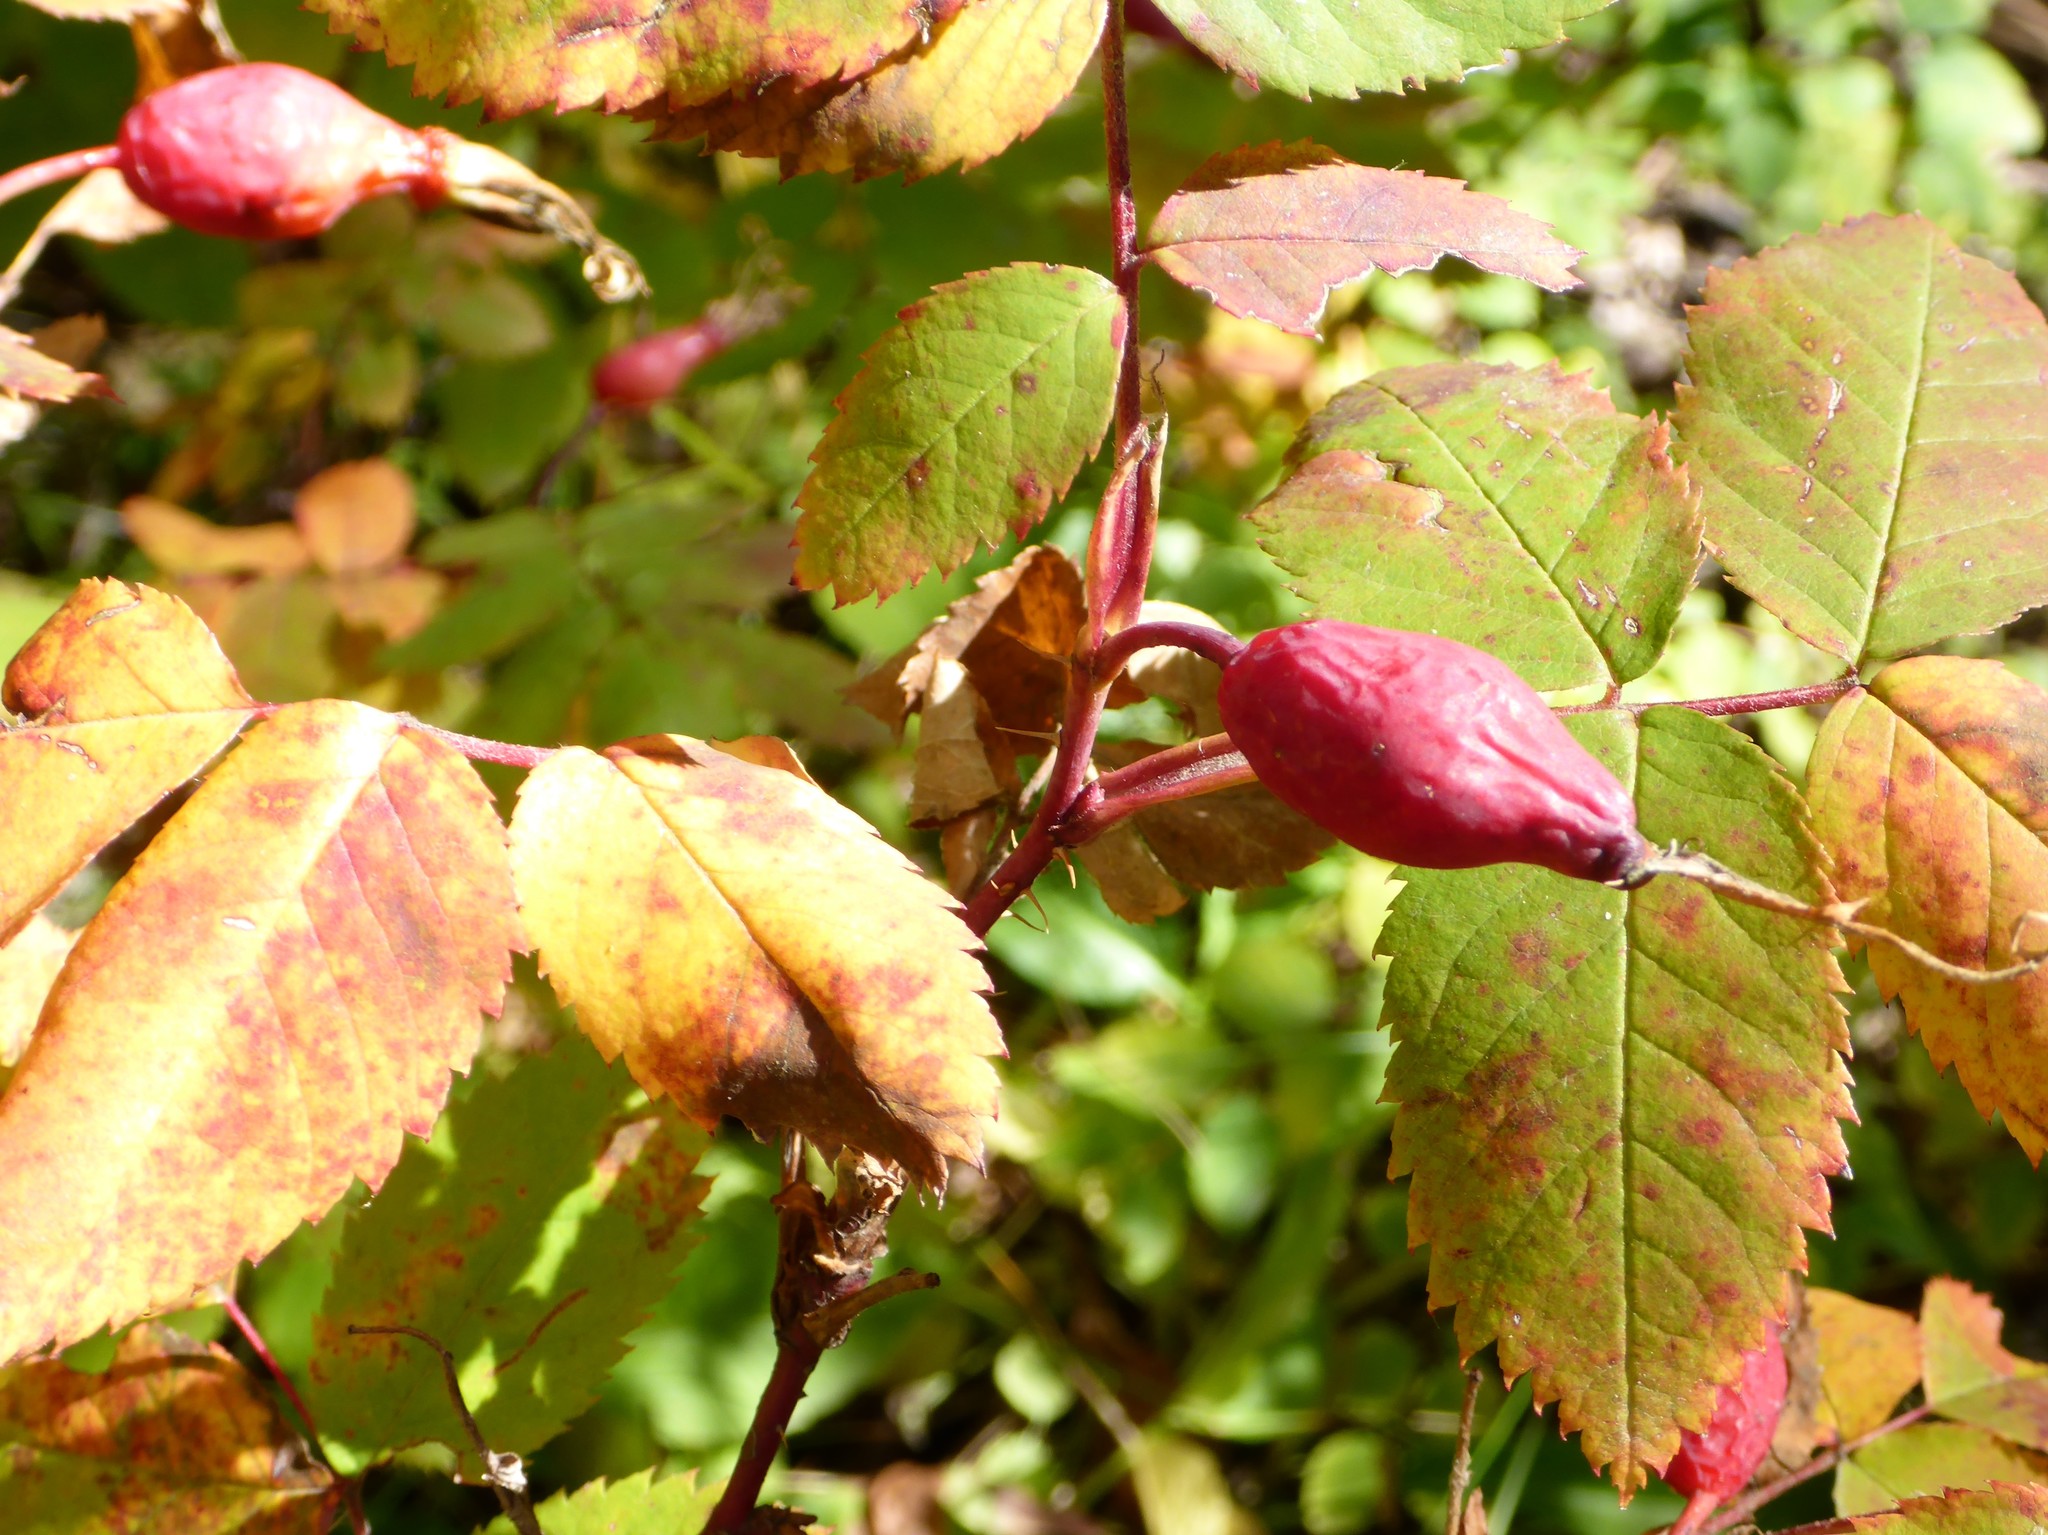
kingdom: Plantae
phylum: Tracheophyta
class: Magnoliopsida
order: Rosales
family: Rosaceae
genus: Rosa
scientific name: Rosa acicularis
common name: Prickly rose
